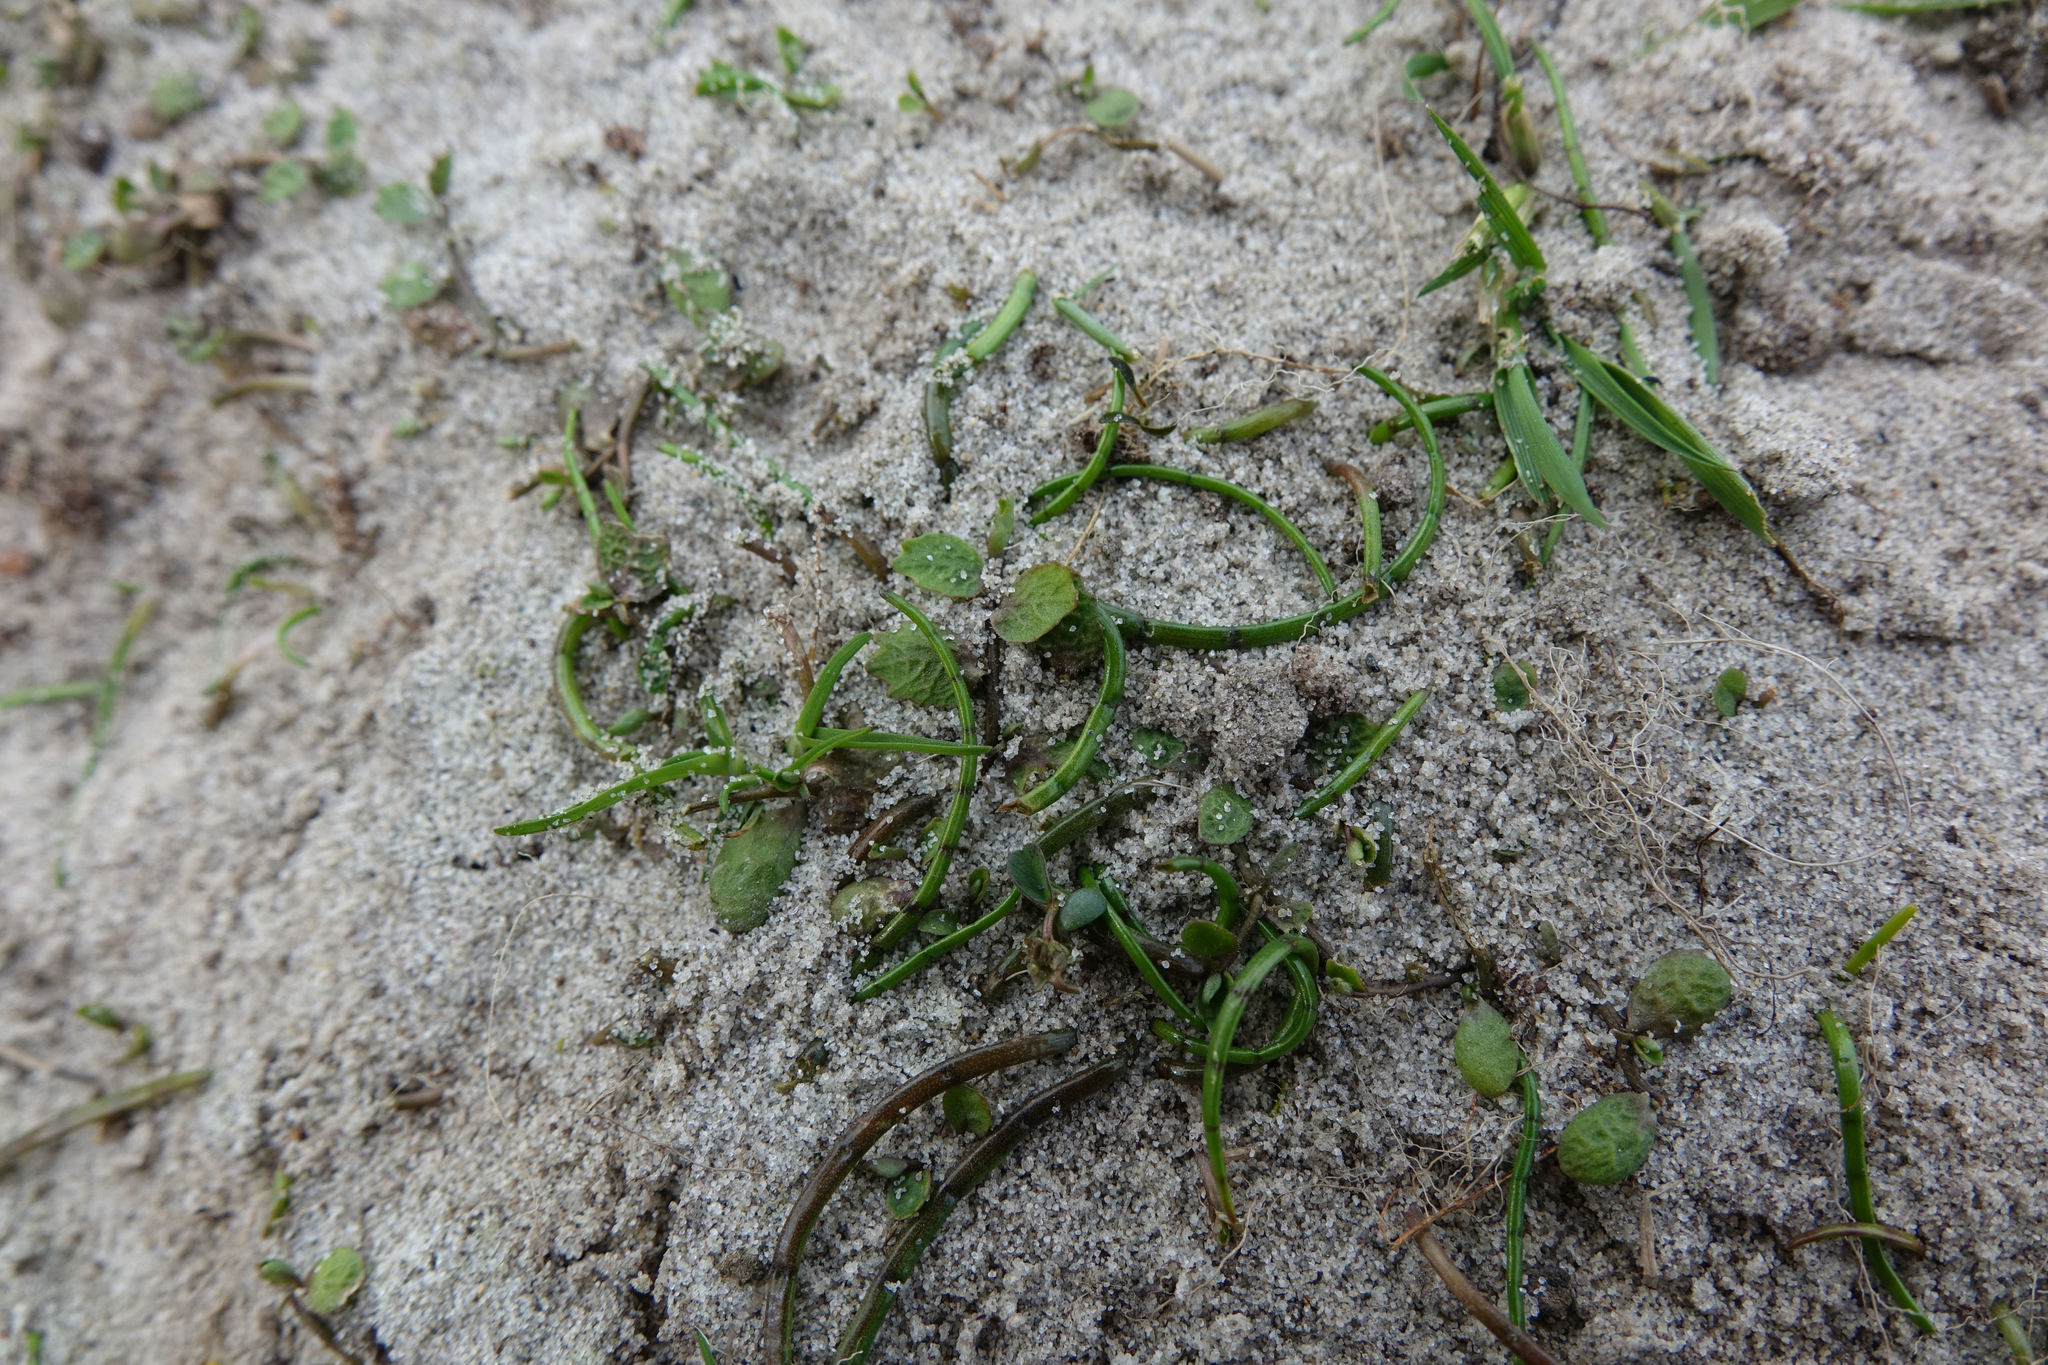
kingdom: Plantae
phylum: Tracheophyta
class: Magnoliopsida
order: Apiales
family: Apiaceae
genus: Lilaeopsis
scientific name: Lilaeopsis novae-zelandiae
